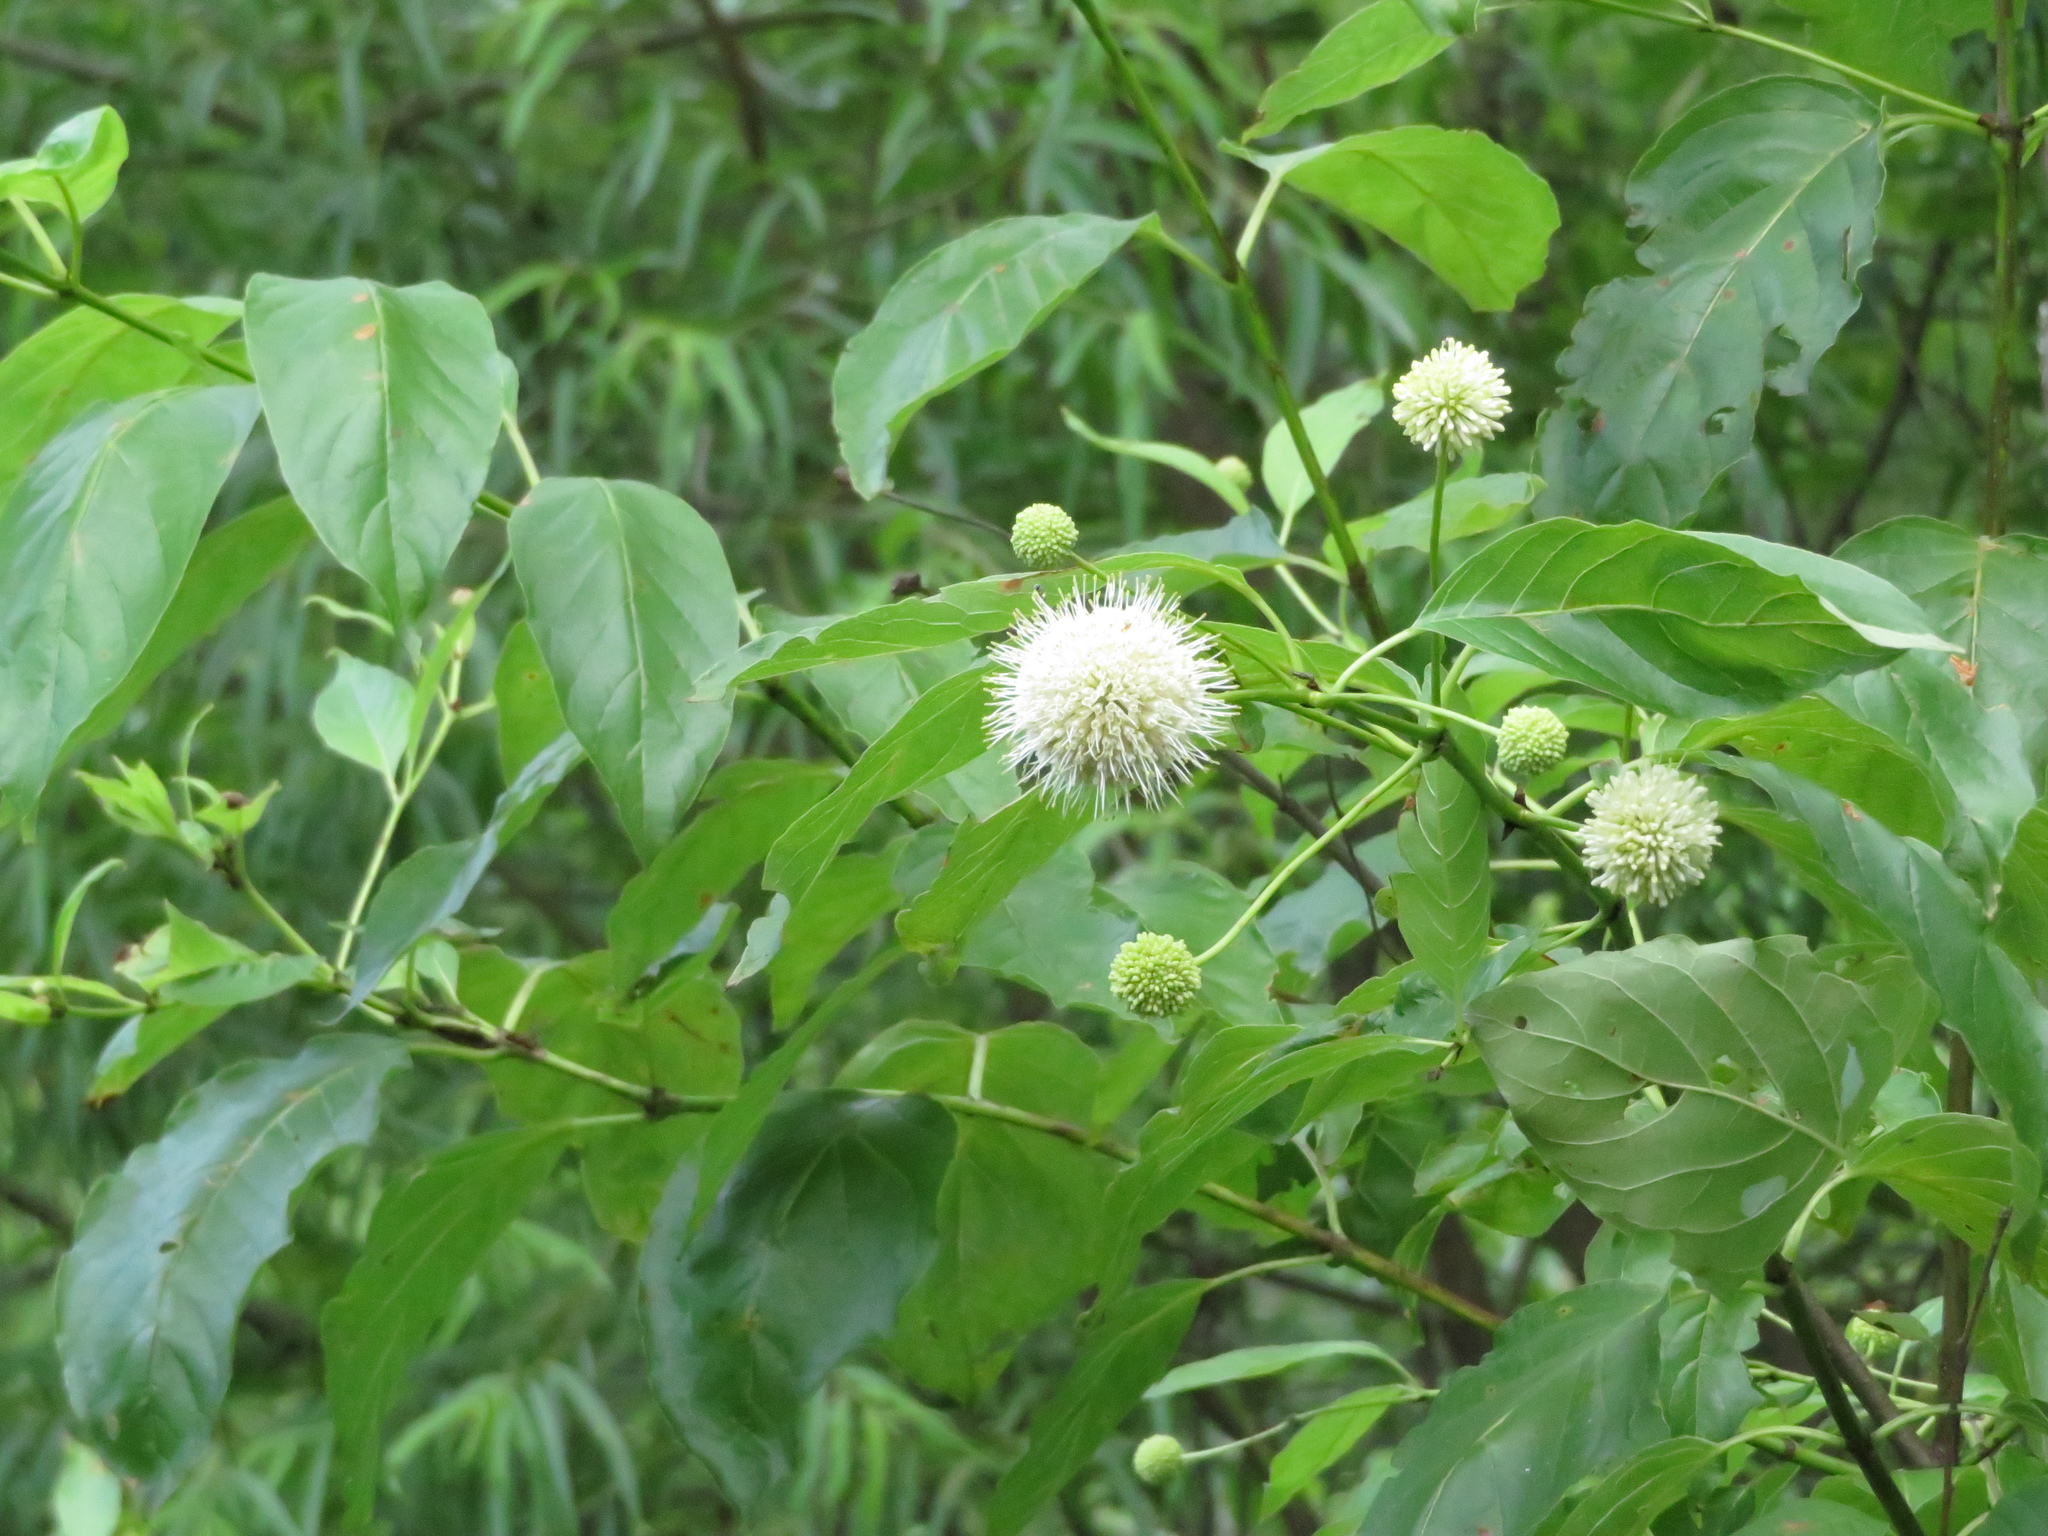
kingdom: Plantae
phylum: Tracheophyta
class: Magnoliopsida
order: Gentianales
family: Rubiaceae
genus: Cephalanthus
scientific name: Cephalanthus occidentalis
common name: Button-willow
